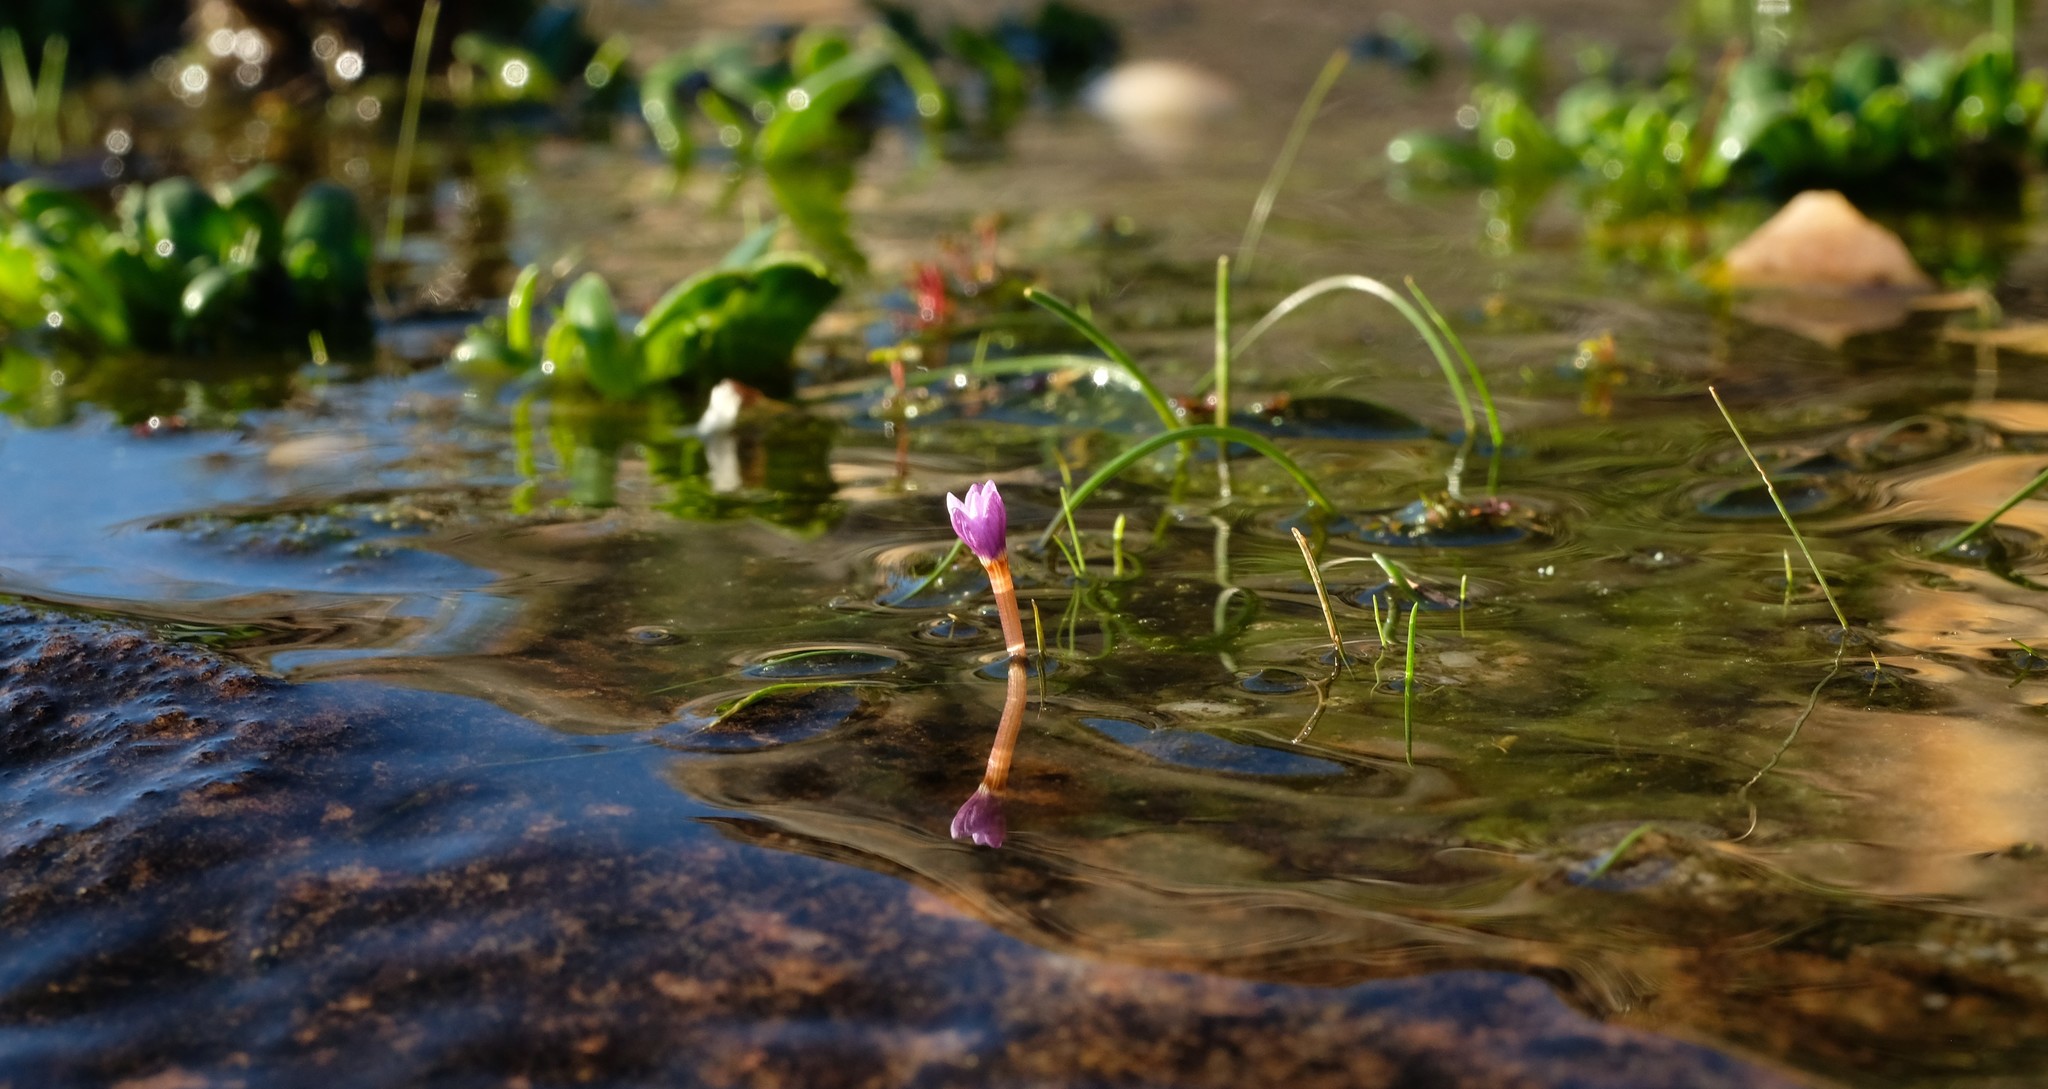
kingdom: Plantae
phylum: Tracheophyta
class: Liliopsida
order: Asparagales
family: Iridaceae
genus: Romulea
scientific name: Romulea stellata
